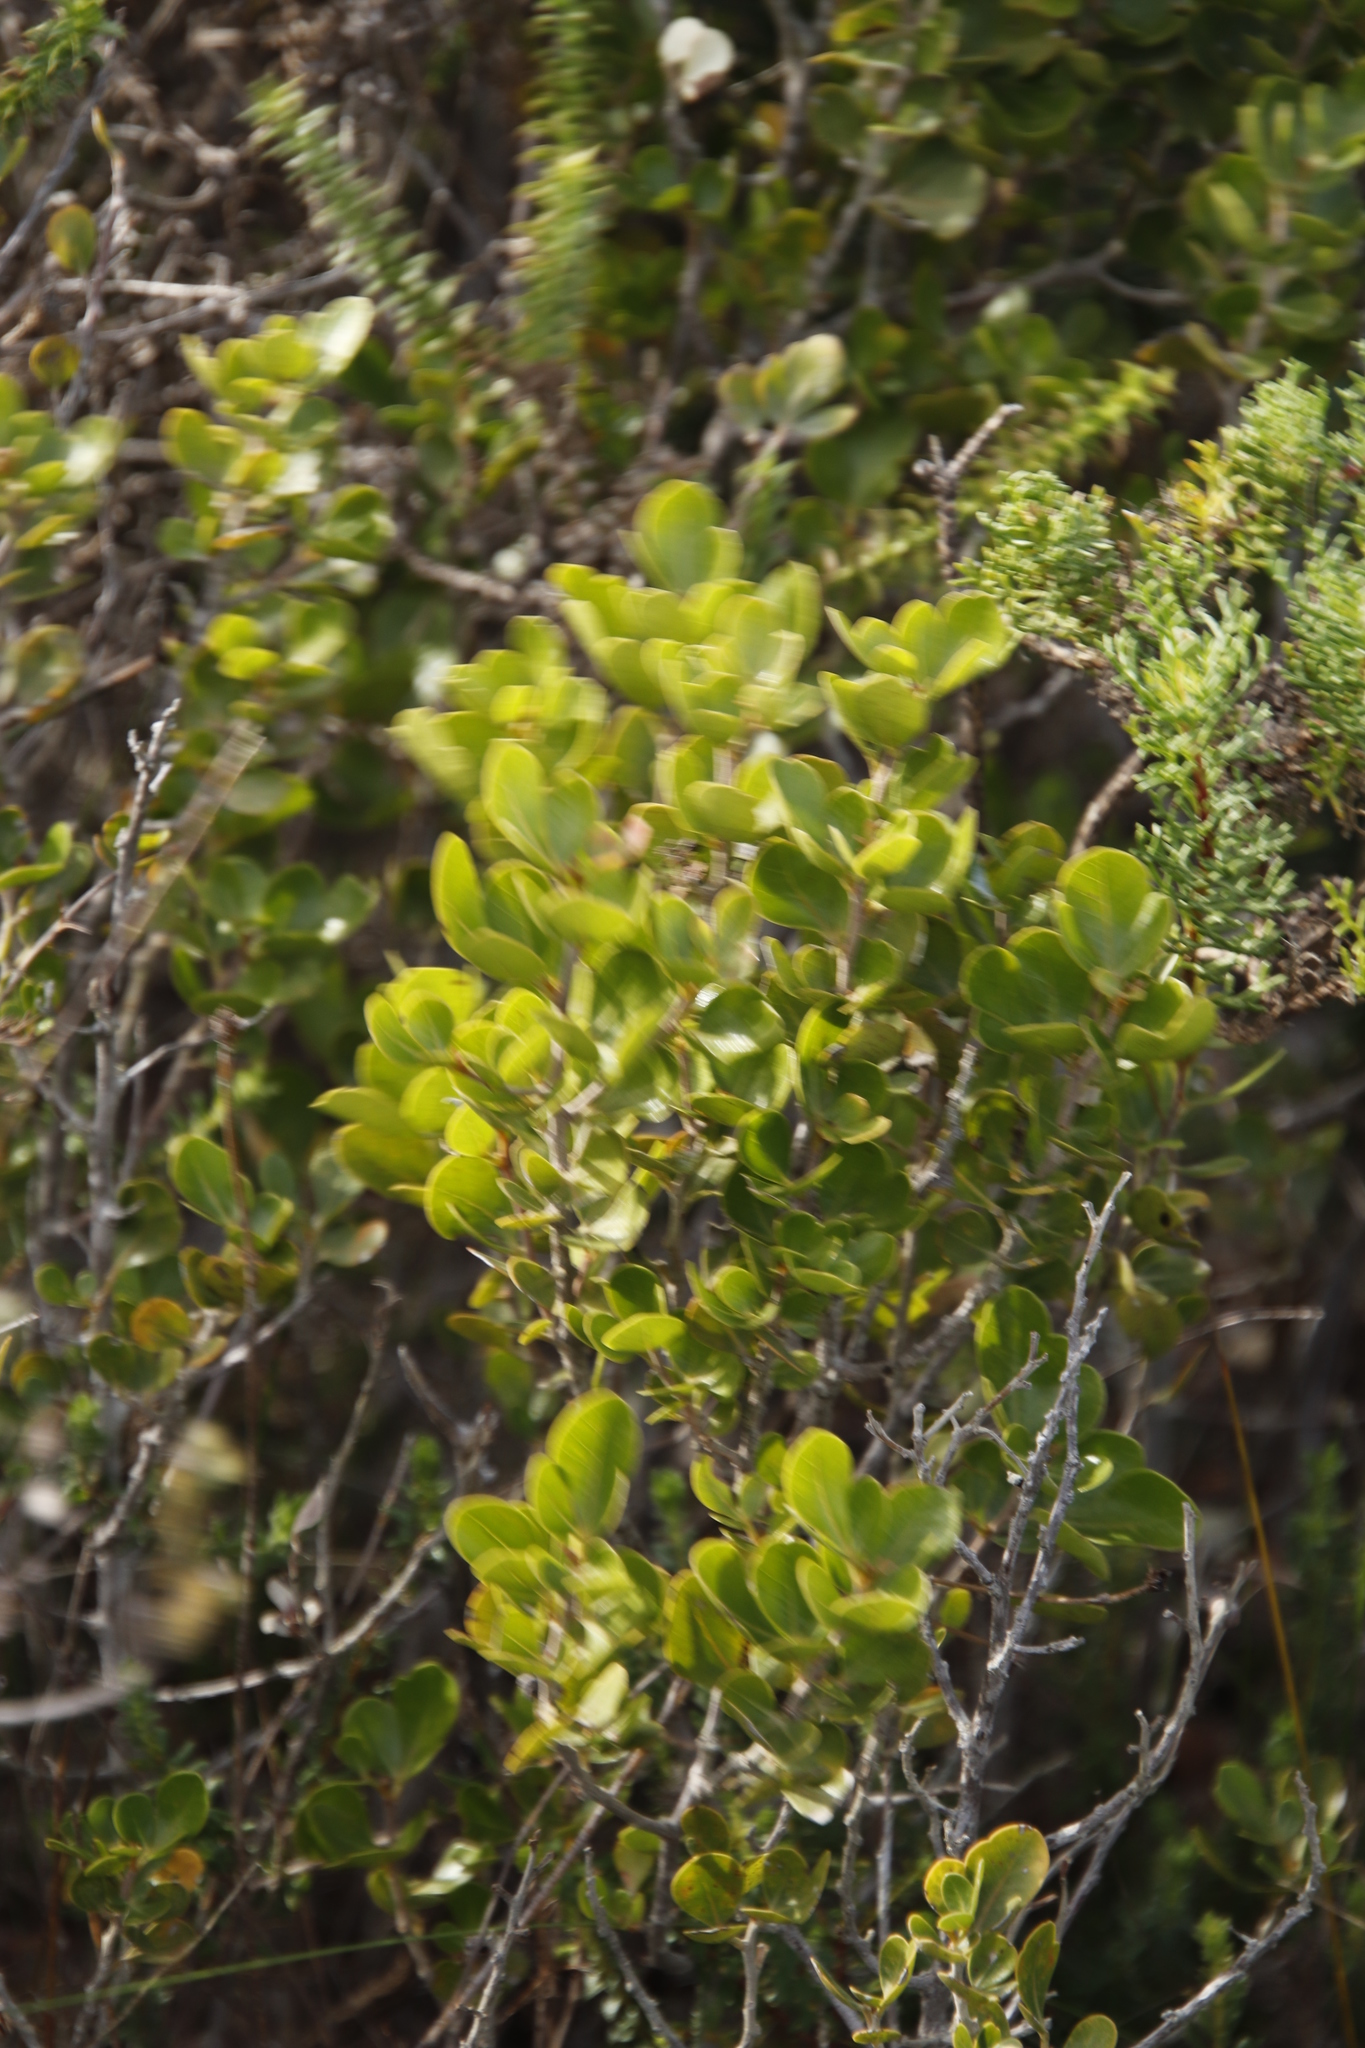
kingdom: Plantae
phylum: Tracheophyta
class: Magnoliopsida
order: Sapindales
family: Anacardiaceae
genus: Searsia
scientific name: Searsia lucida
